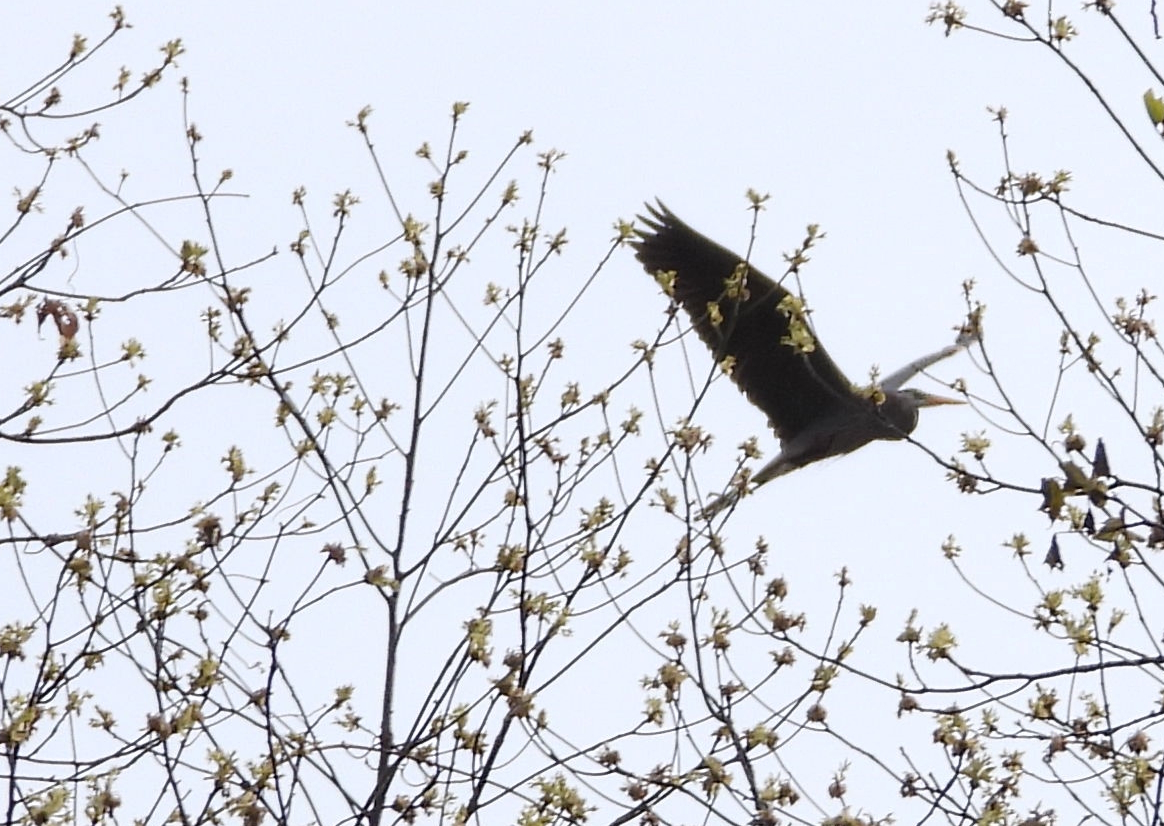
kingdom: Animalia
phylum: Chordata
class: Aves
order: Pelecaniformes
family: Ardeidae
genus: Ardea
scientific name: Ardea herodias
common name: Great blue heron
